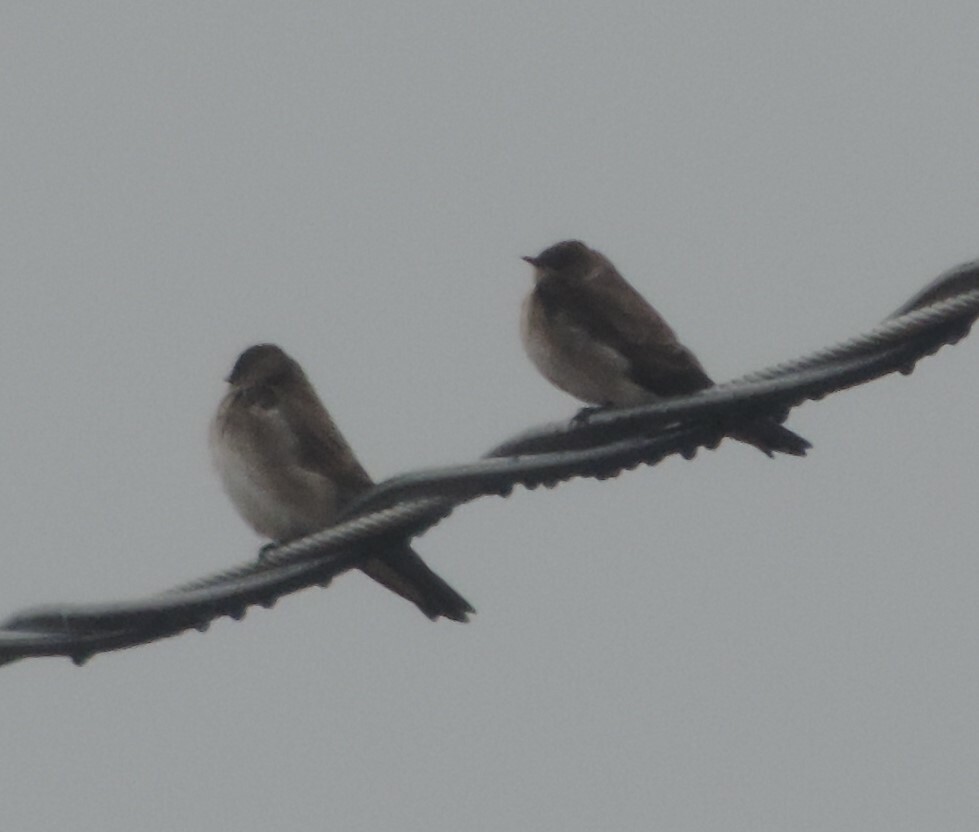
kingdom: Animalia
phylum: Chordata
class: Aves
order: Passeriformes
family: Hirundinidae
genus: Stelgidopteryx
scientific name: Stelgidopteryx serripennis
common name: Northern rough-winged swallow
